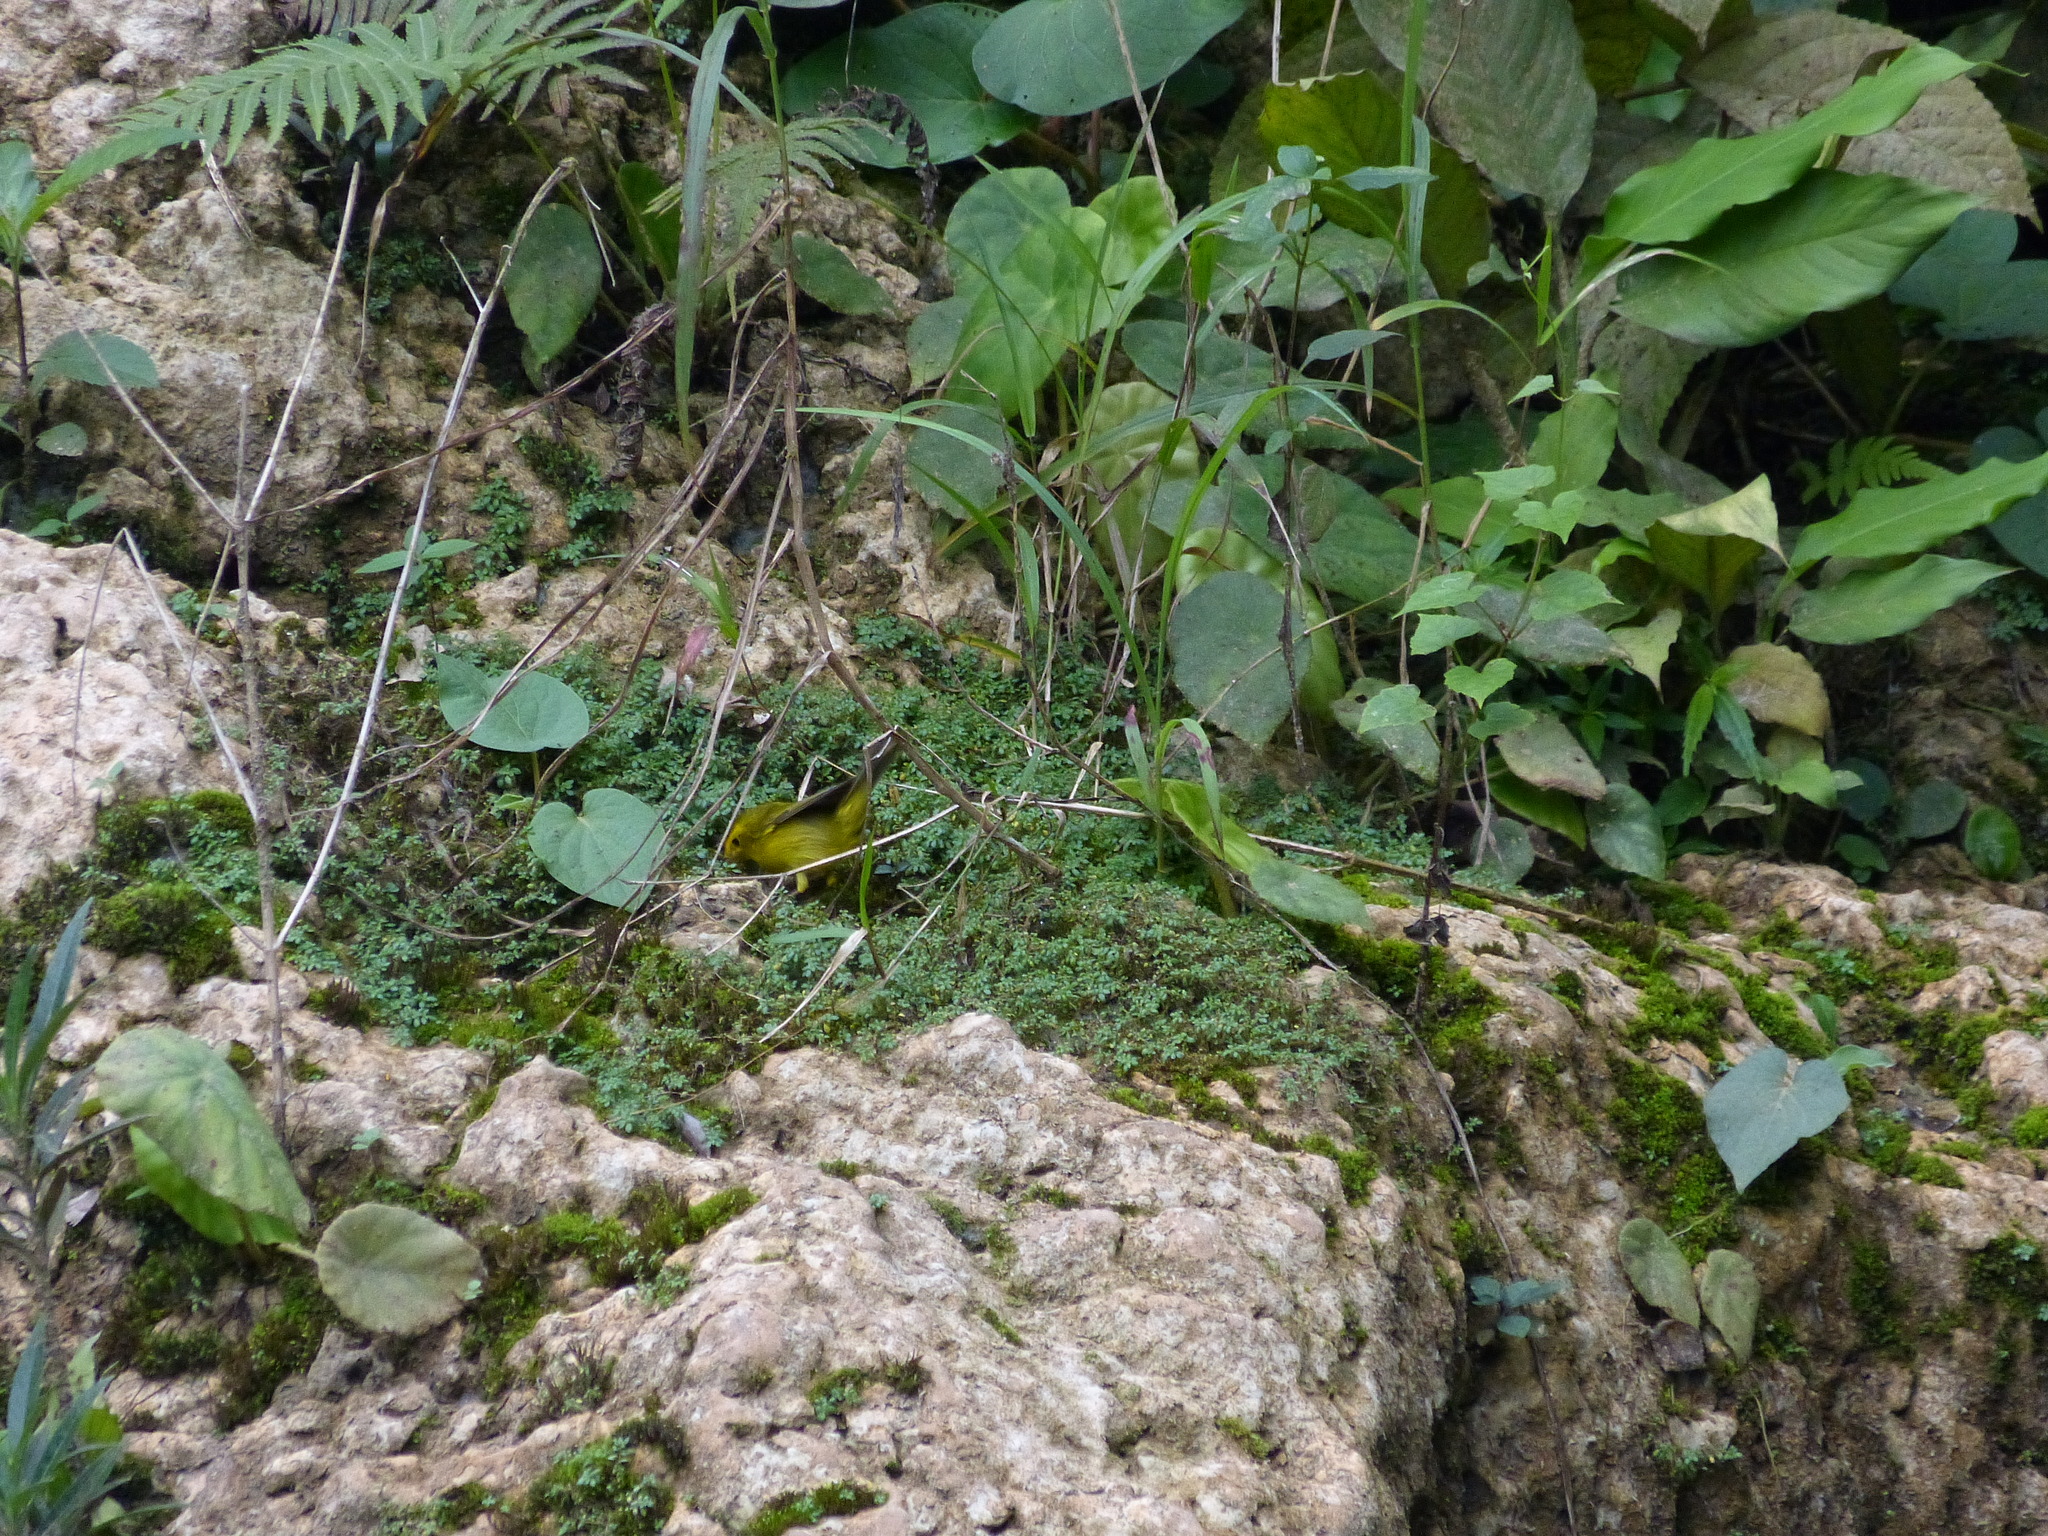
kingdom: Animalia
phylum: Chordata
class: Aves
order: Passeriformes
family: Parulidae
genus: Cardellina
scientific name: Cardellina pusilla
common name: Wilson's warbler
